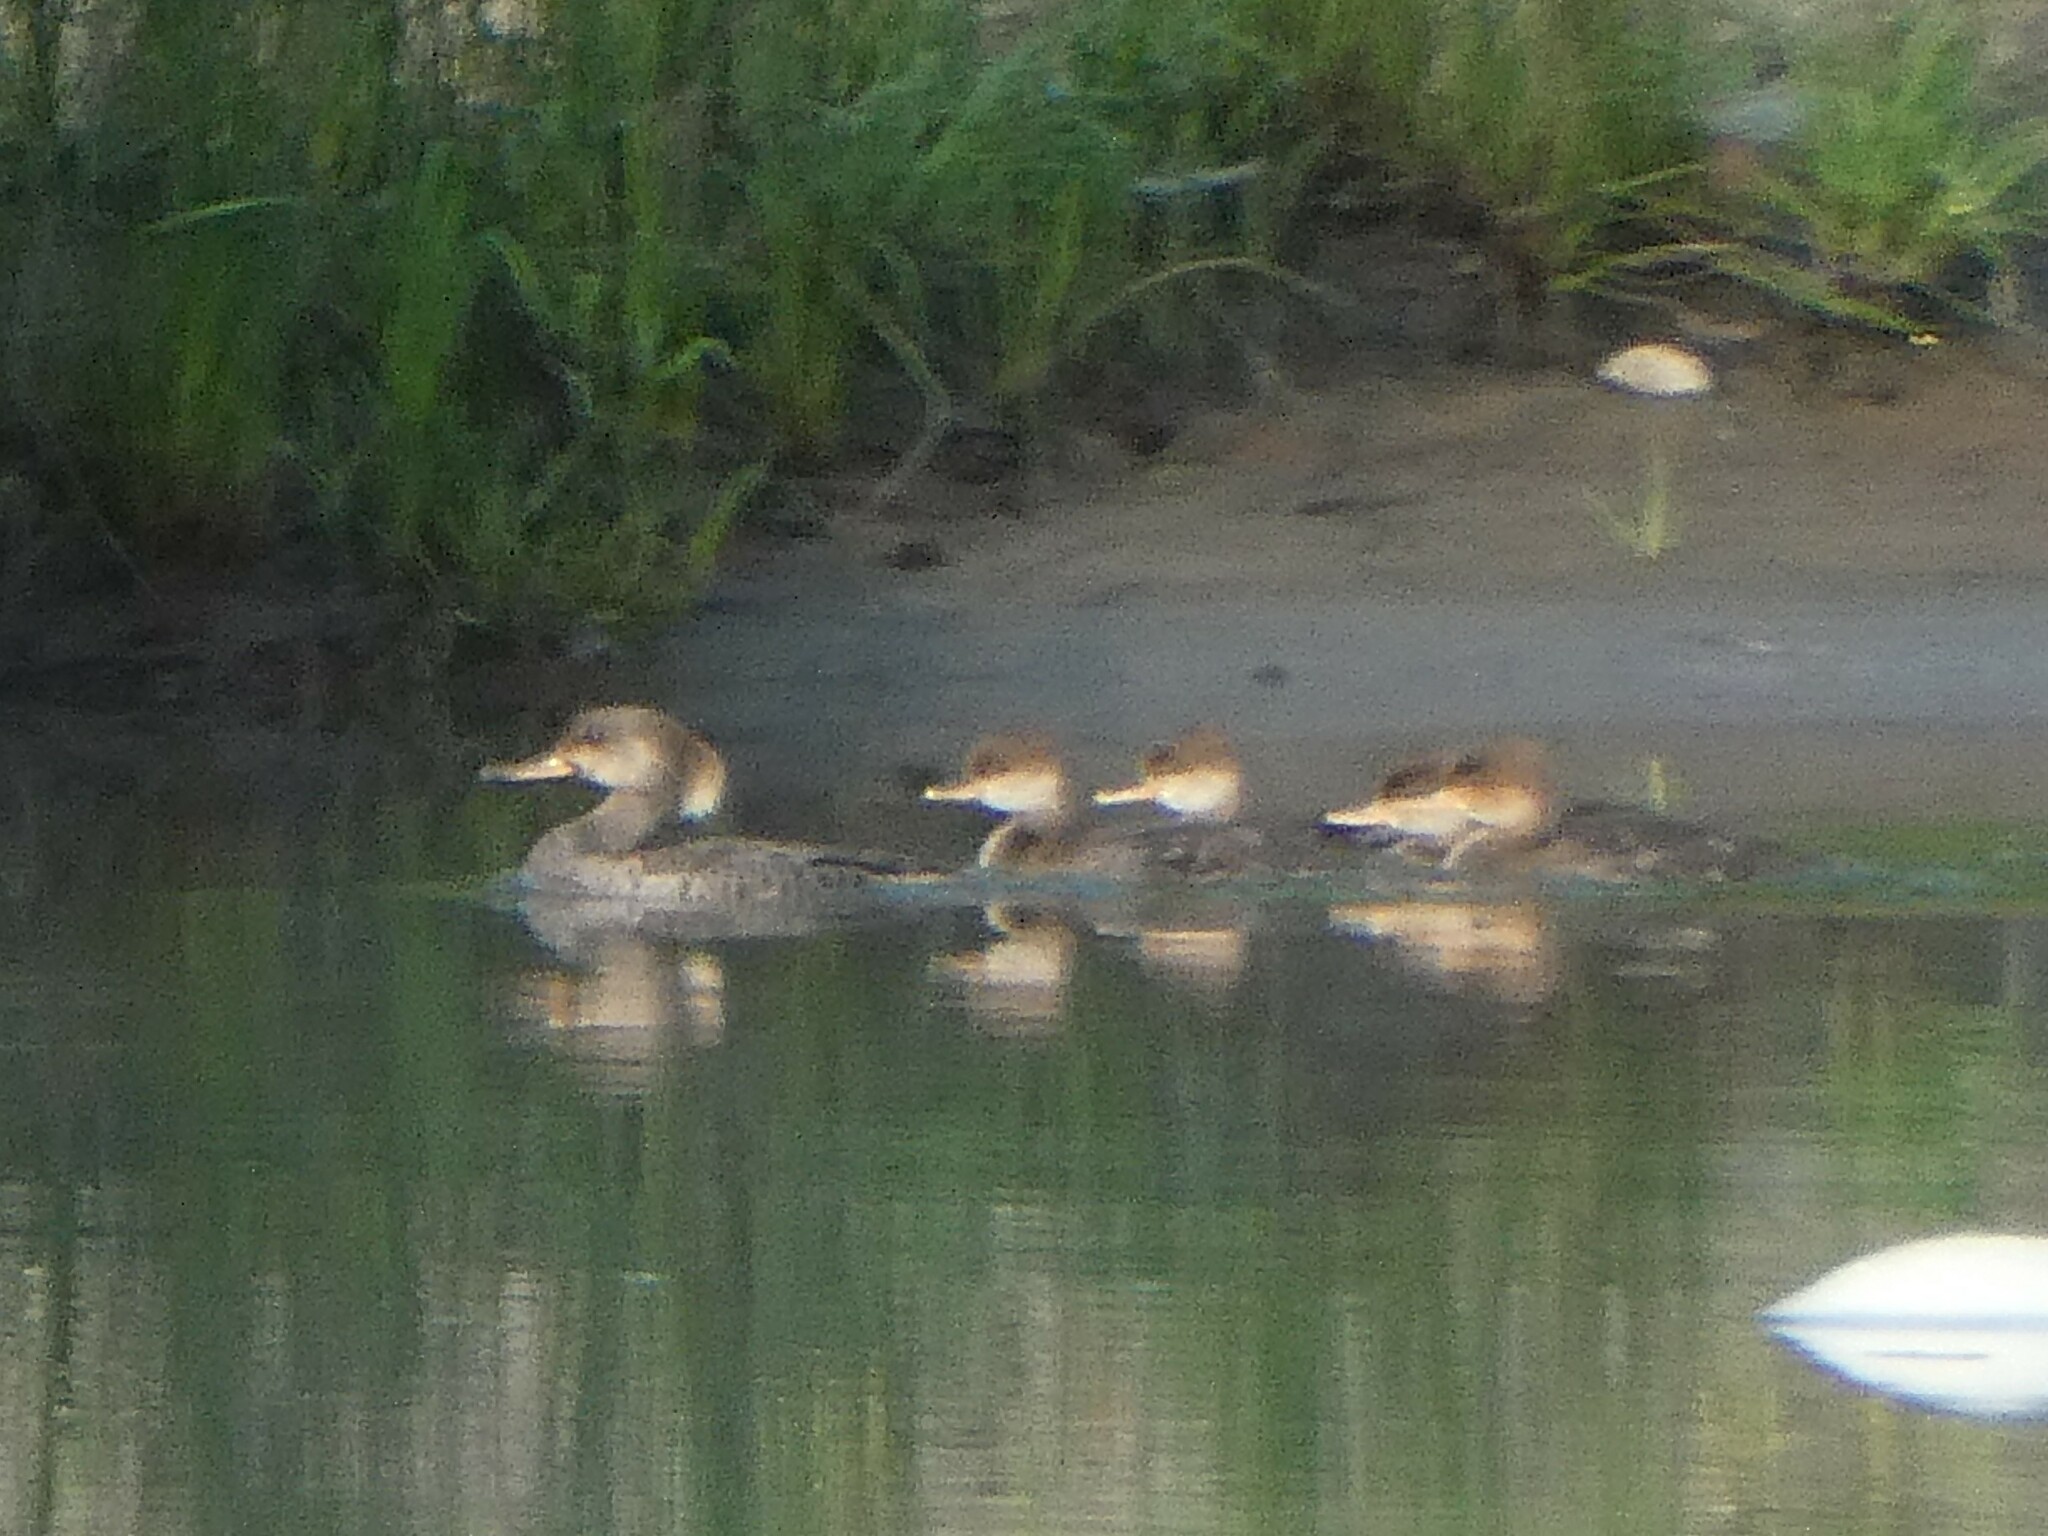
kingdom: Animalia
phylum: Chordata
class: Aves
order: Anseriformes
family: Anatidae
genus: Lophodytes
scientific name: Lophodytes cucullatus
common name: Hooded merganser
